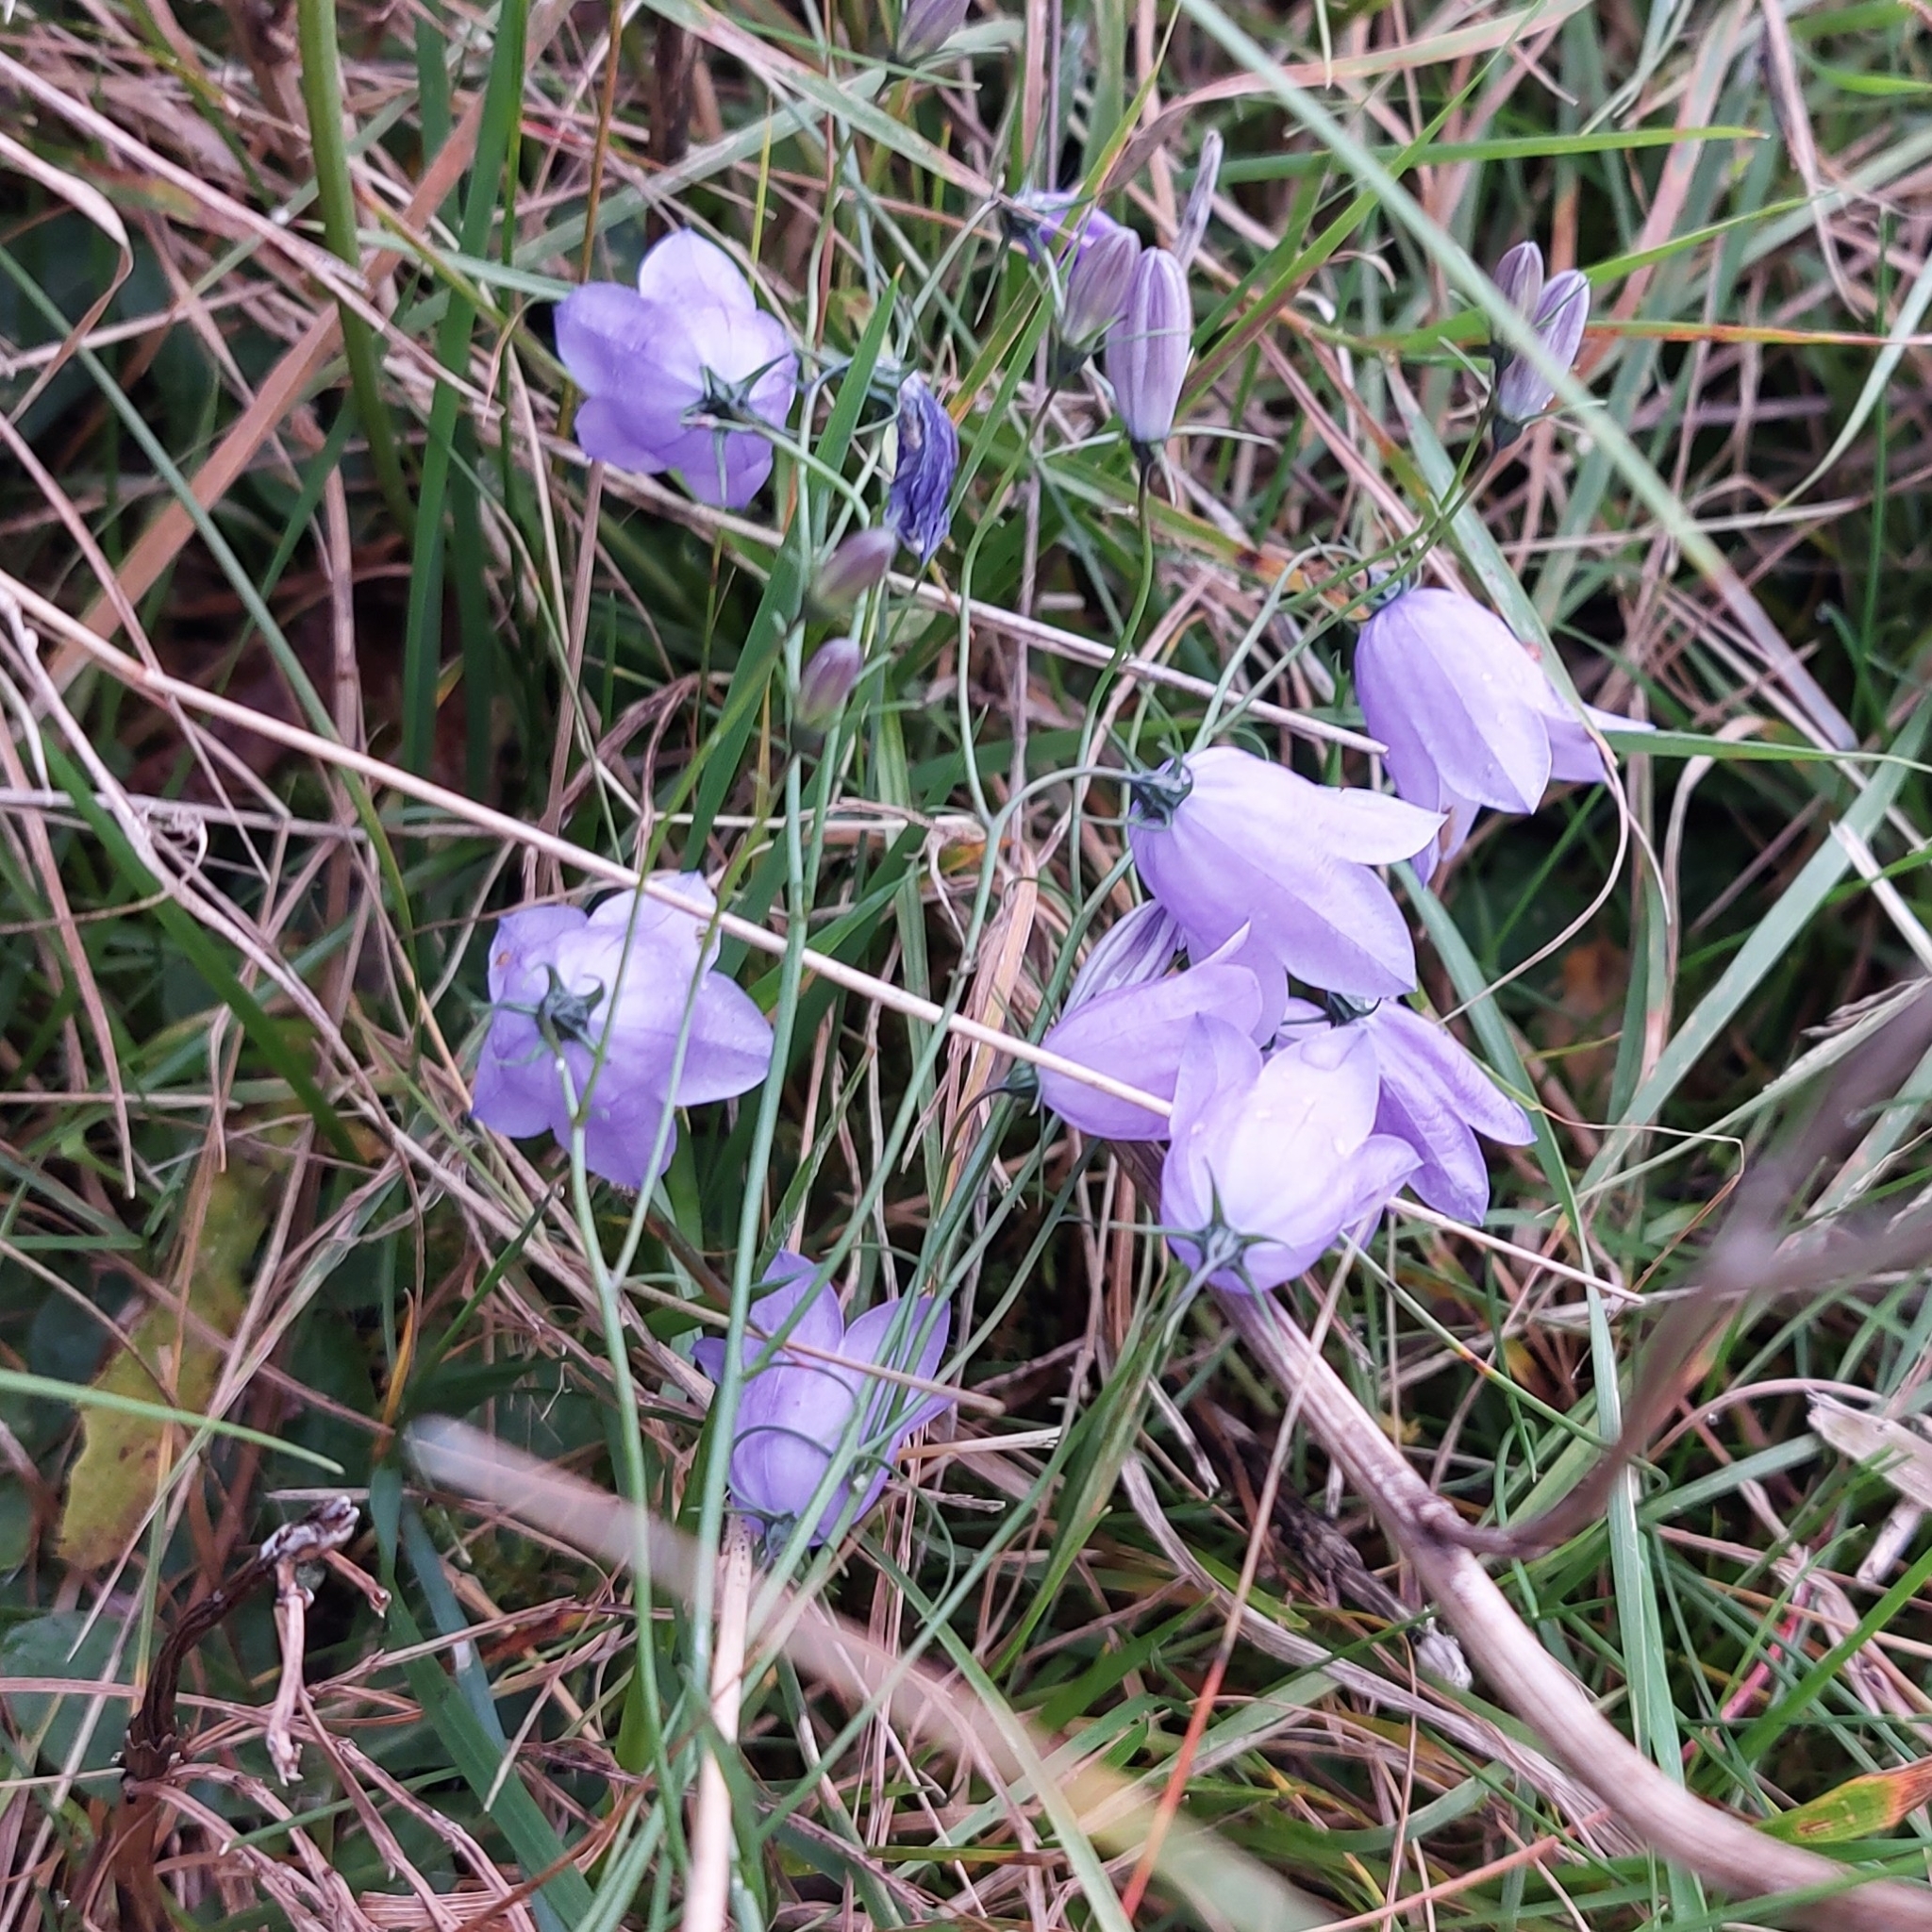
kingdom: Plantae
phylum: Tracheophyta
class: Magnoliopsida
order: Asterales
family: Campanulaceae
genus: Campanula
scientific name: Campanula rotundifolia
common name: Harebell
